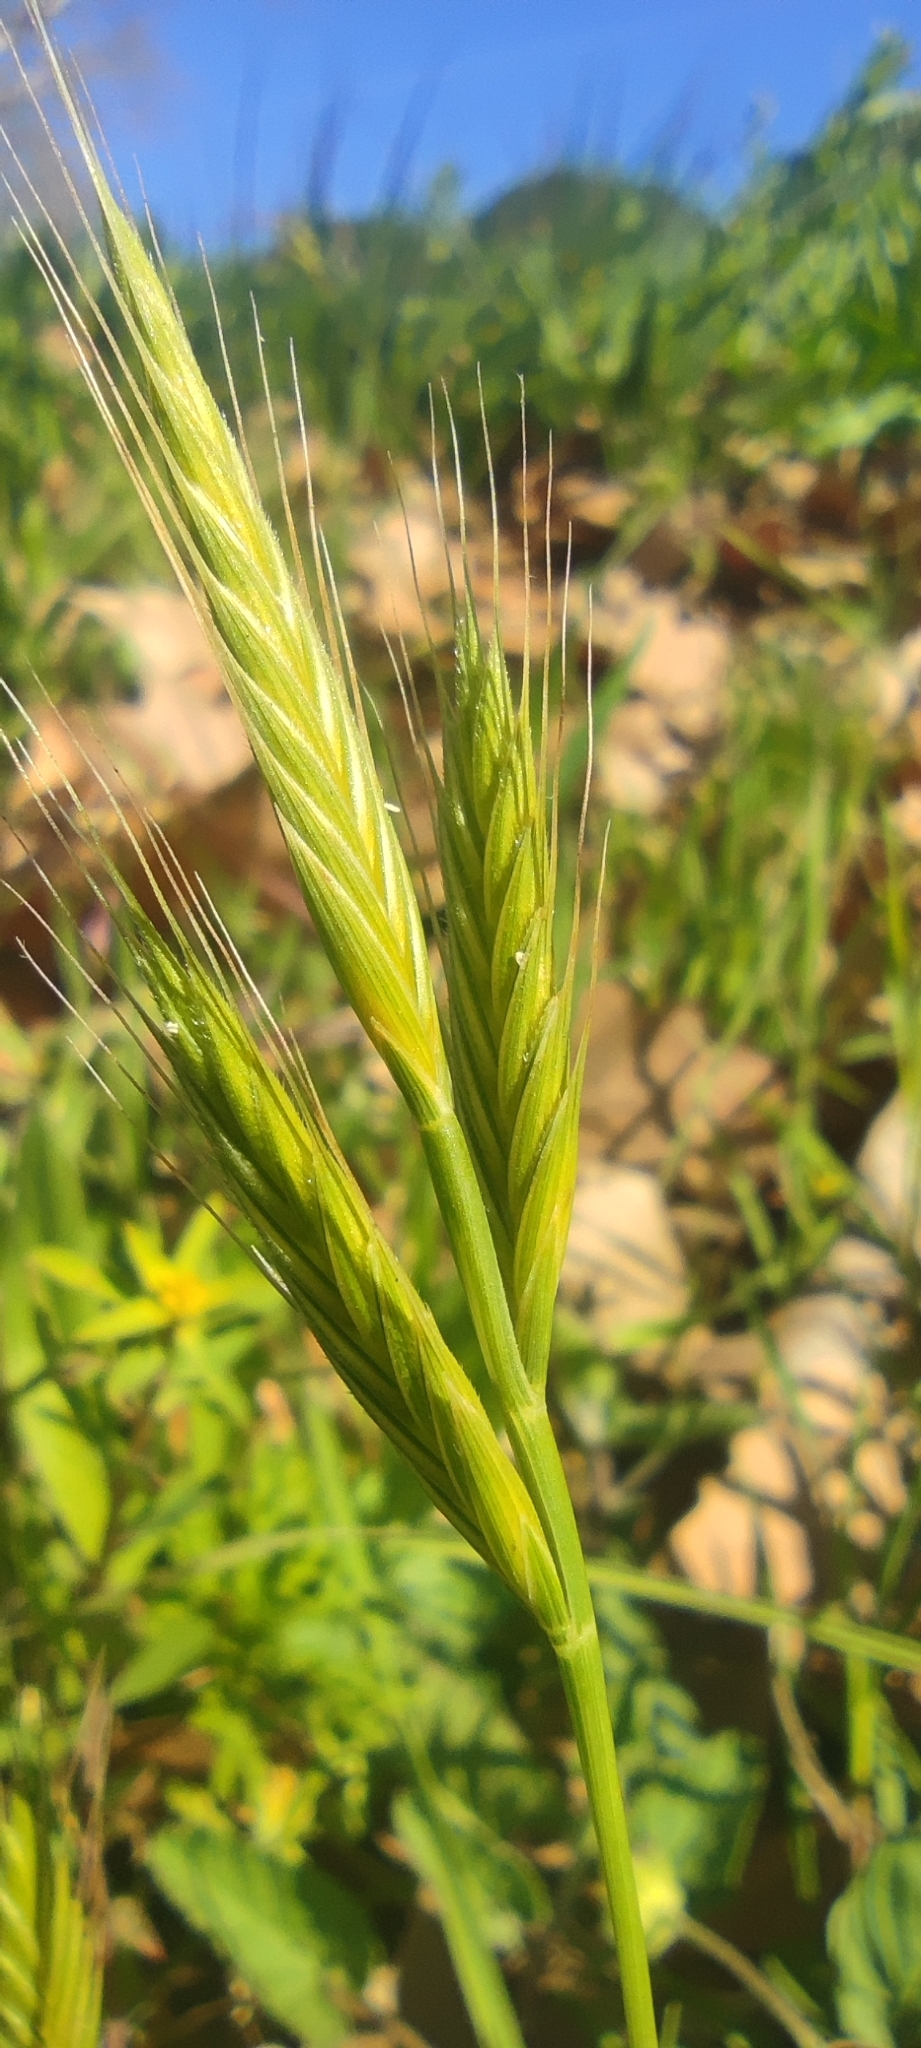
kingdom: Plantae
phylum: Tracheophyta
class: Liliopsida
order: Poales
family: Poaceae
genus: Brachypodium
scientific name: Brachypodium distachyon
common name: Stiff brome
